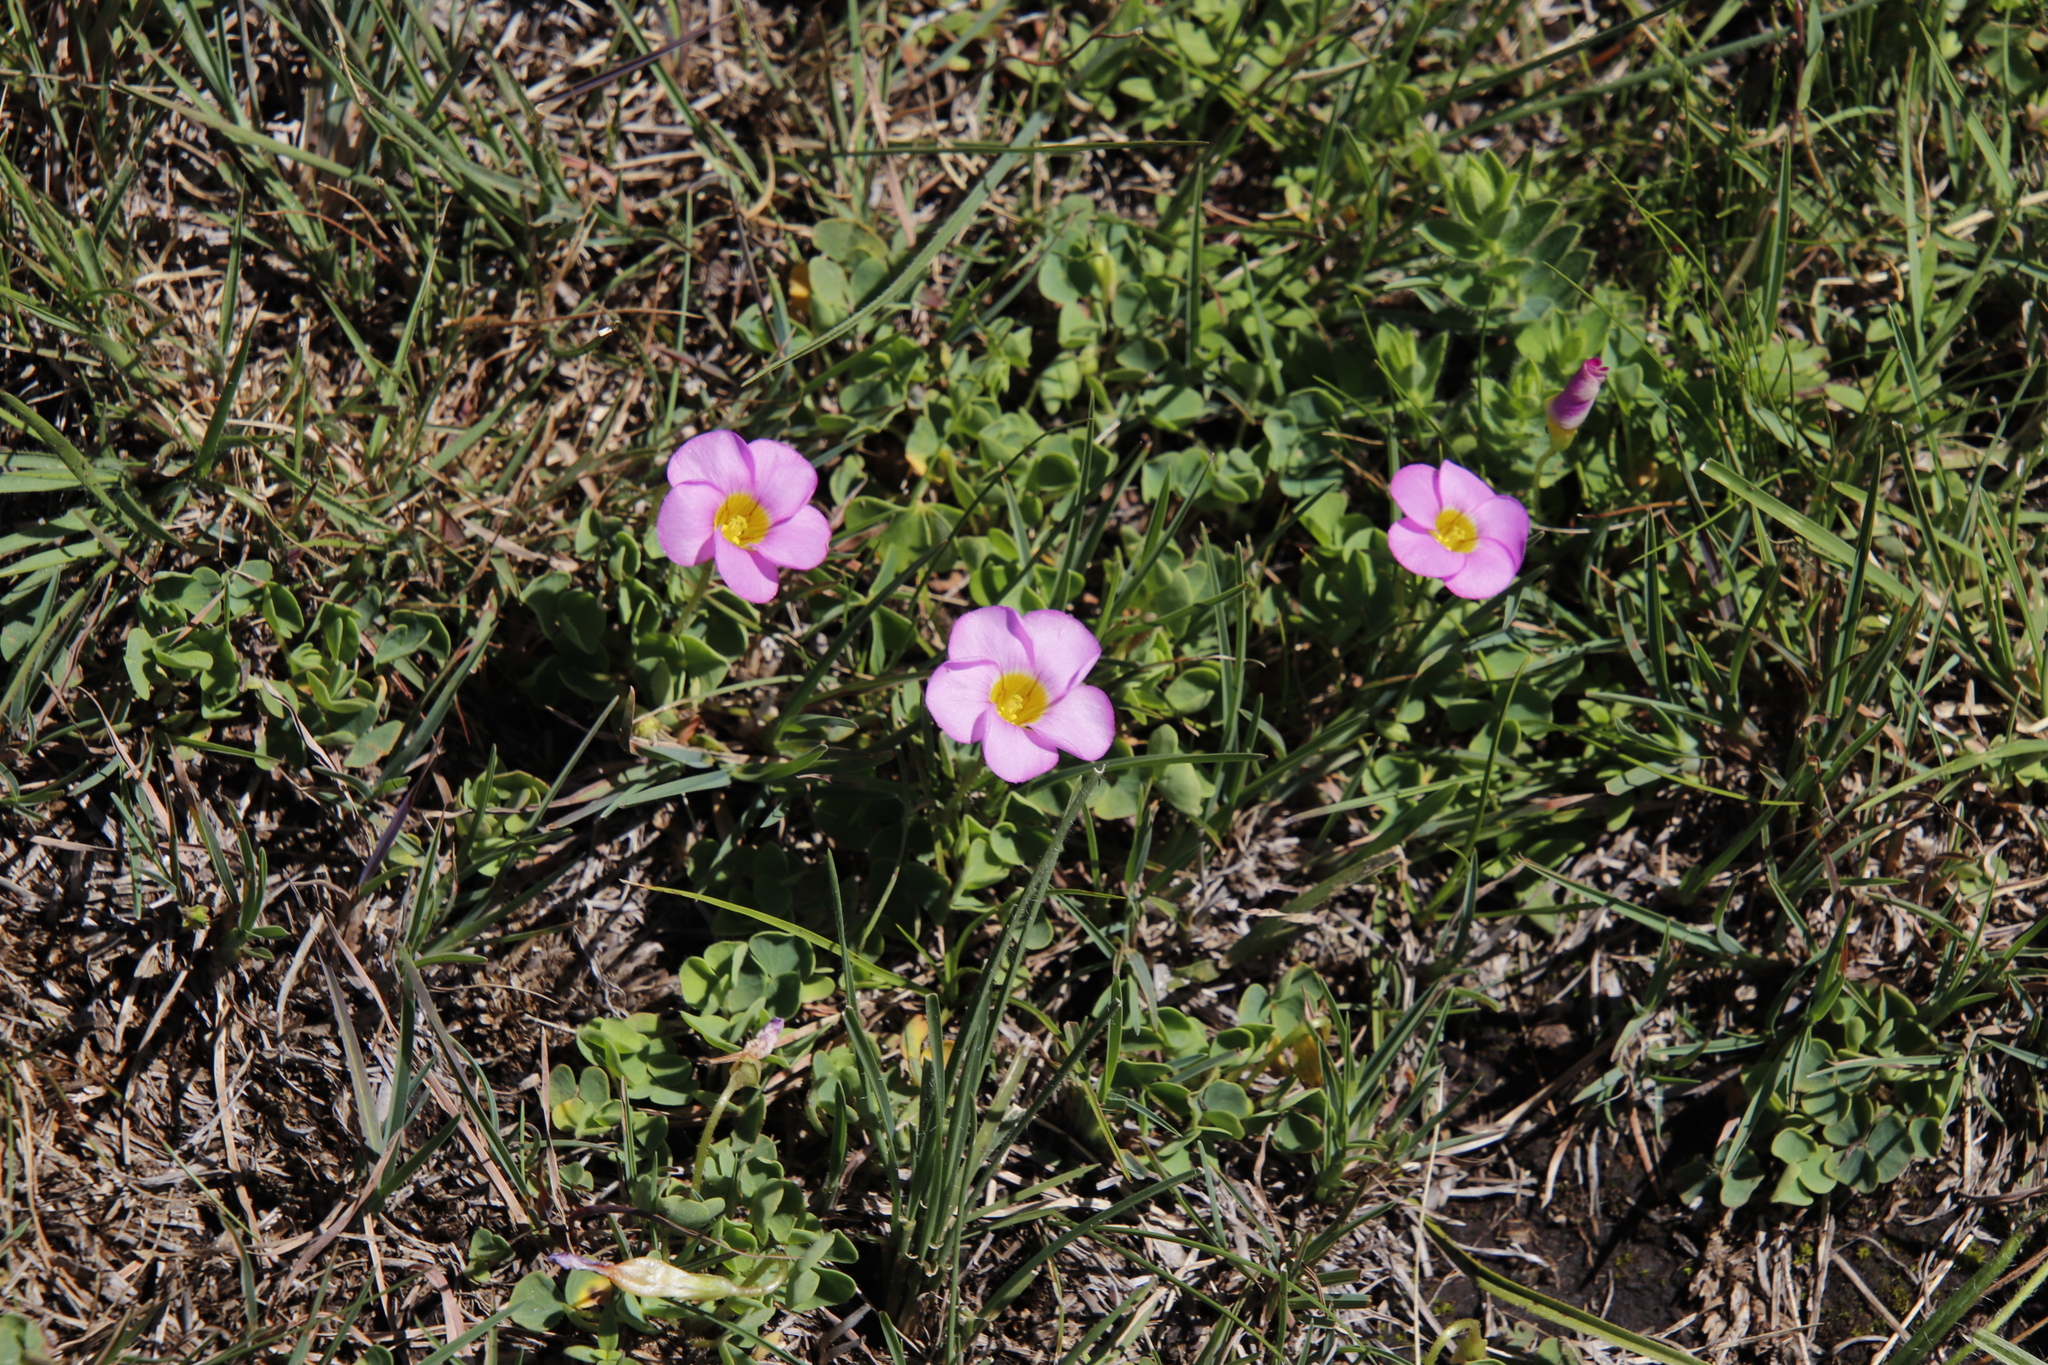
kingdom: Plantae
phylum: Tracheophyta
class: Magnoliopsida
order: Oxalidales
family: Oxalidaceae
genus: Oxalis
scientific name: Oxalis obliquifolia
